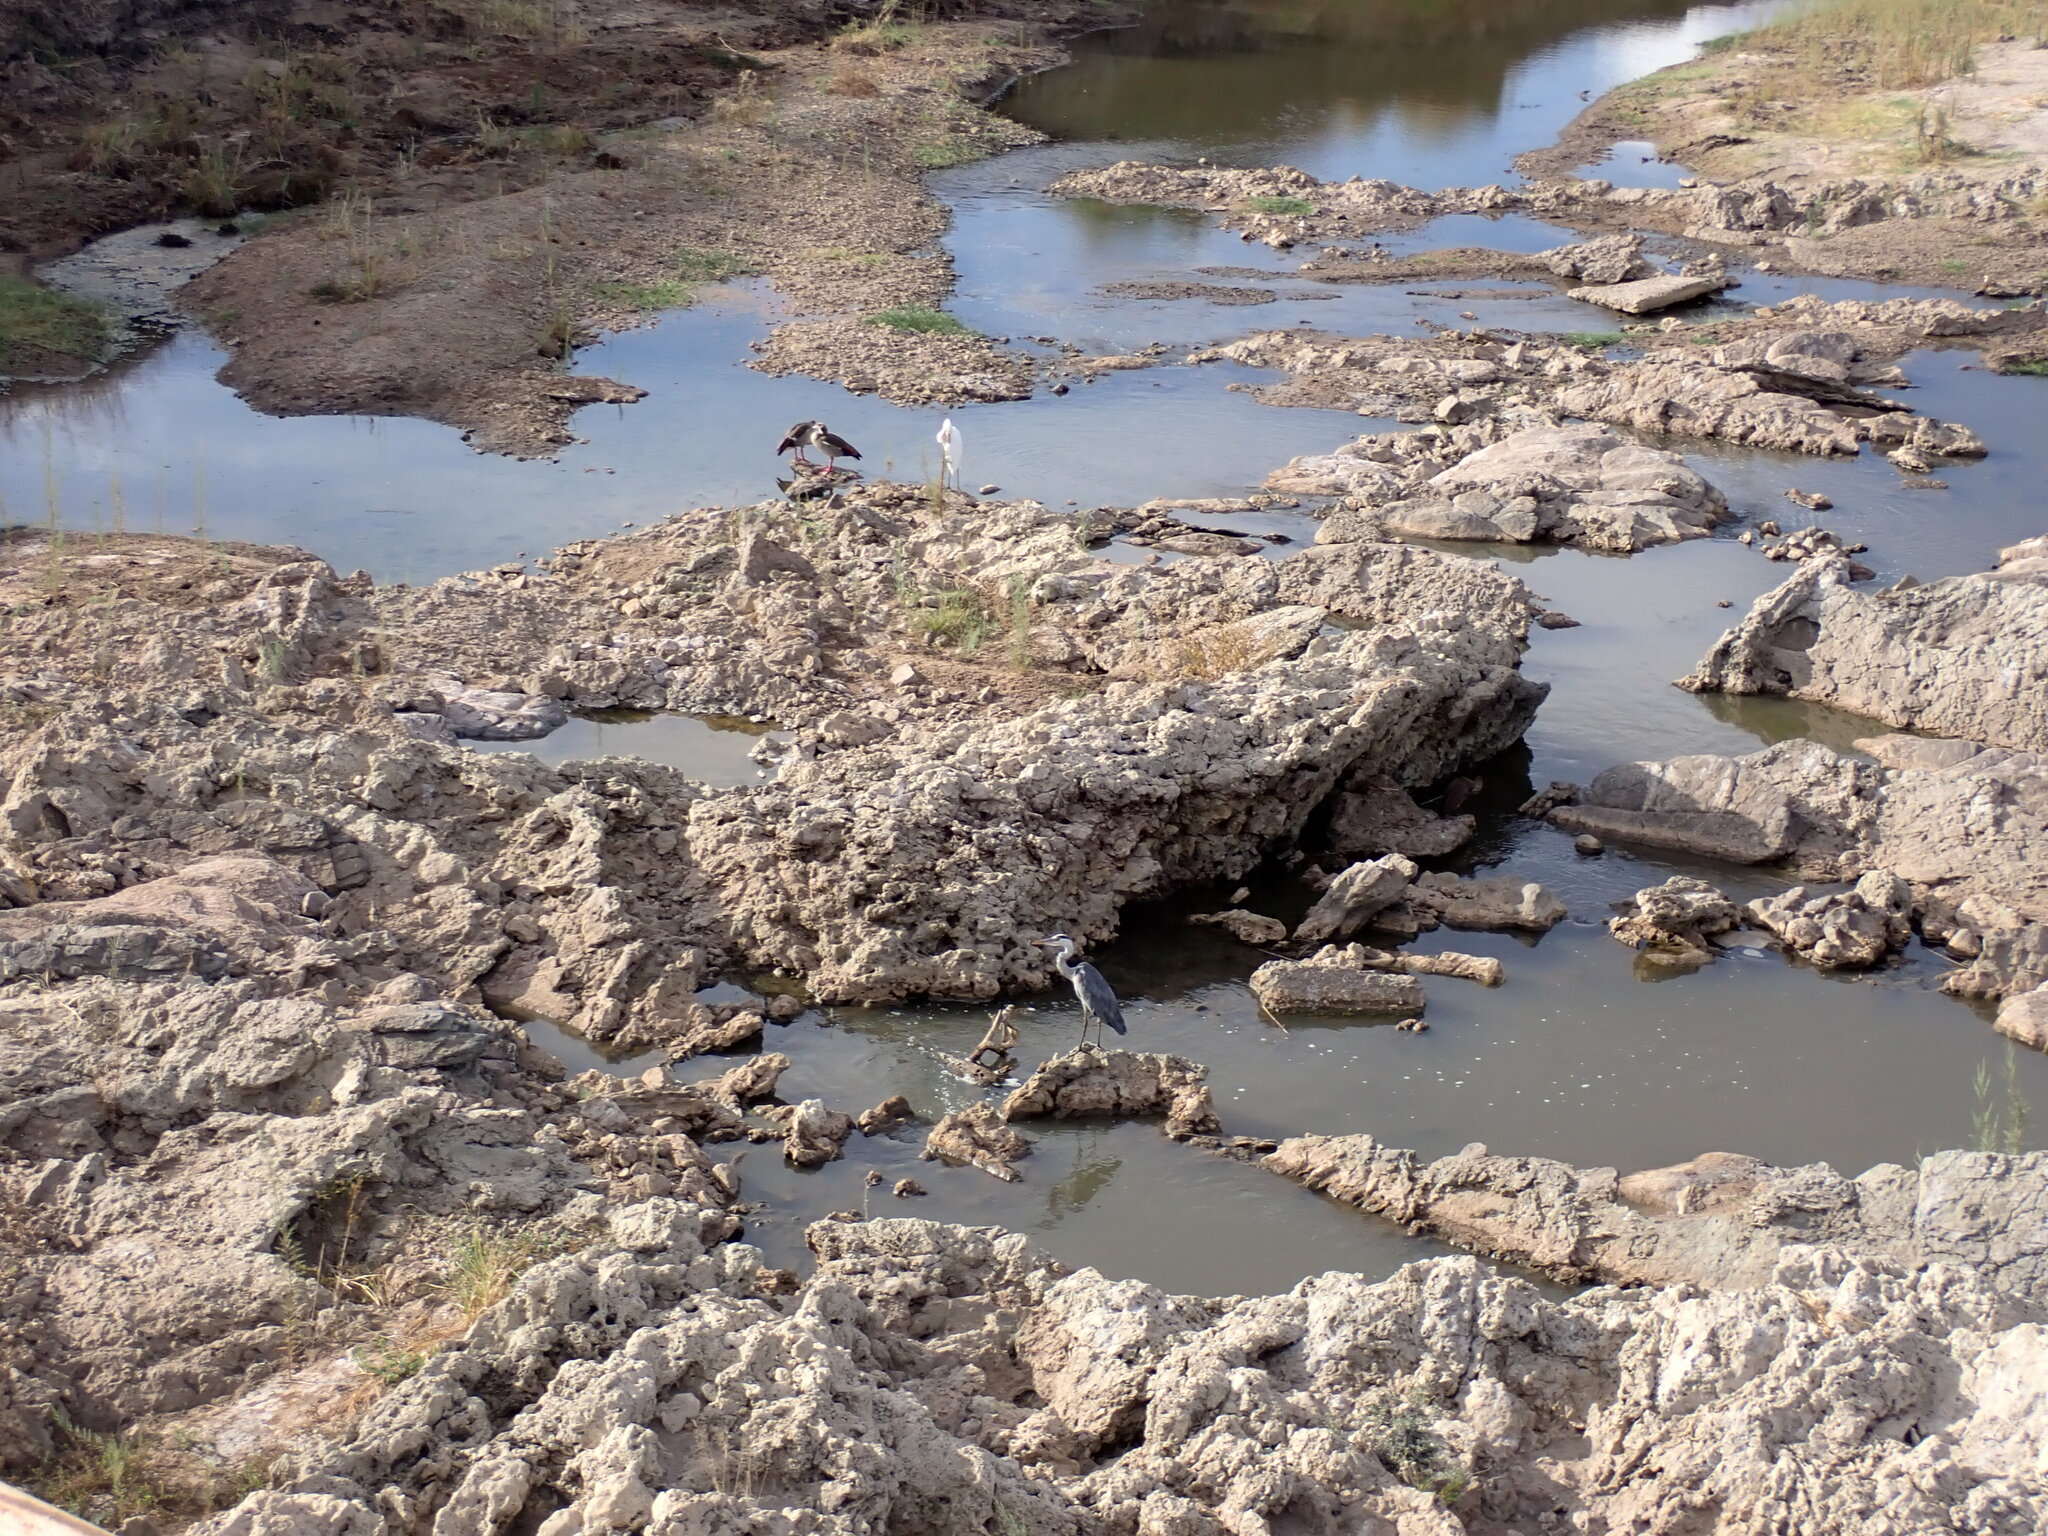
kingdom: Animalia
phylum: Chordata
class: Aves
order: Pelecaniformes
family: Ardeidae
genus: Ardea
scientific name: Ardea alba
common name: Great egret
